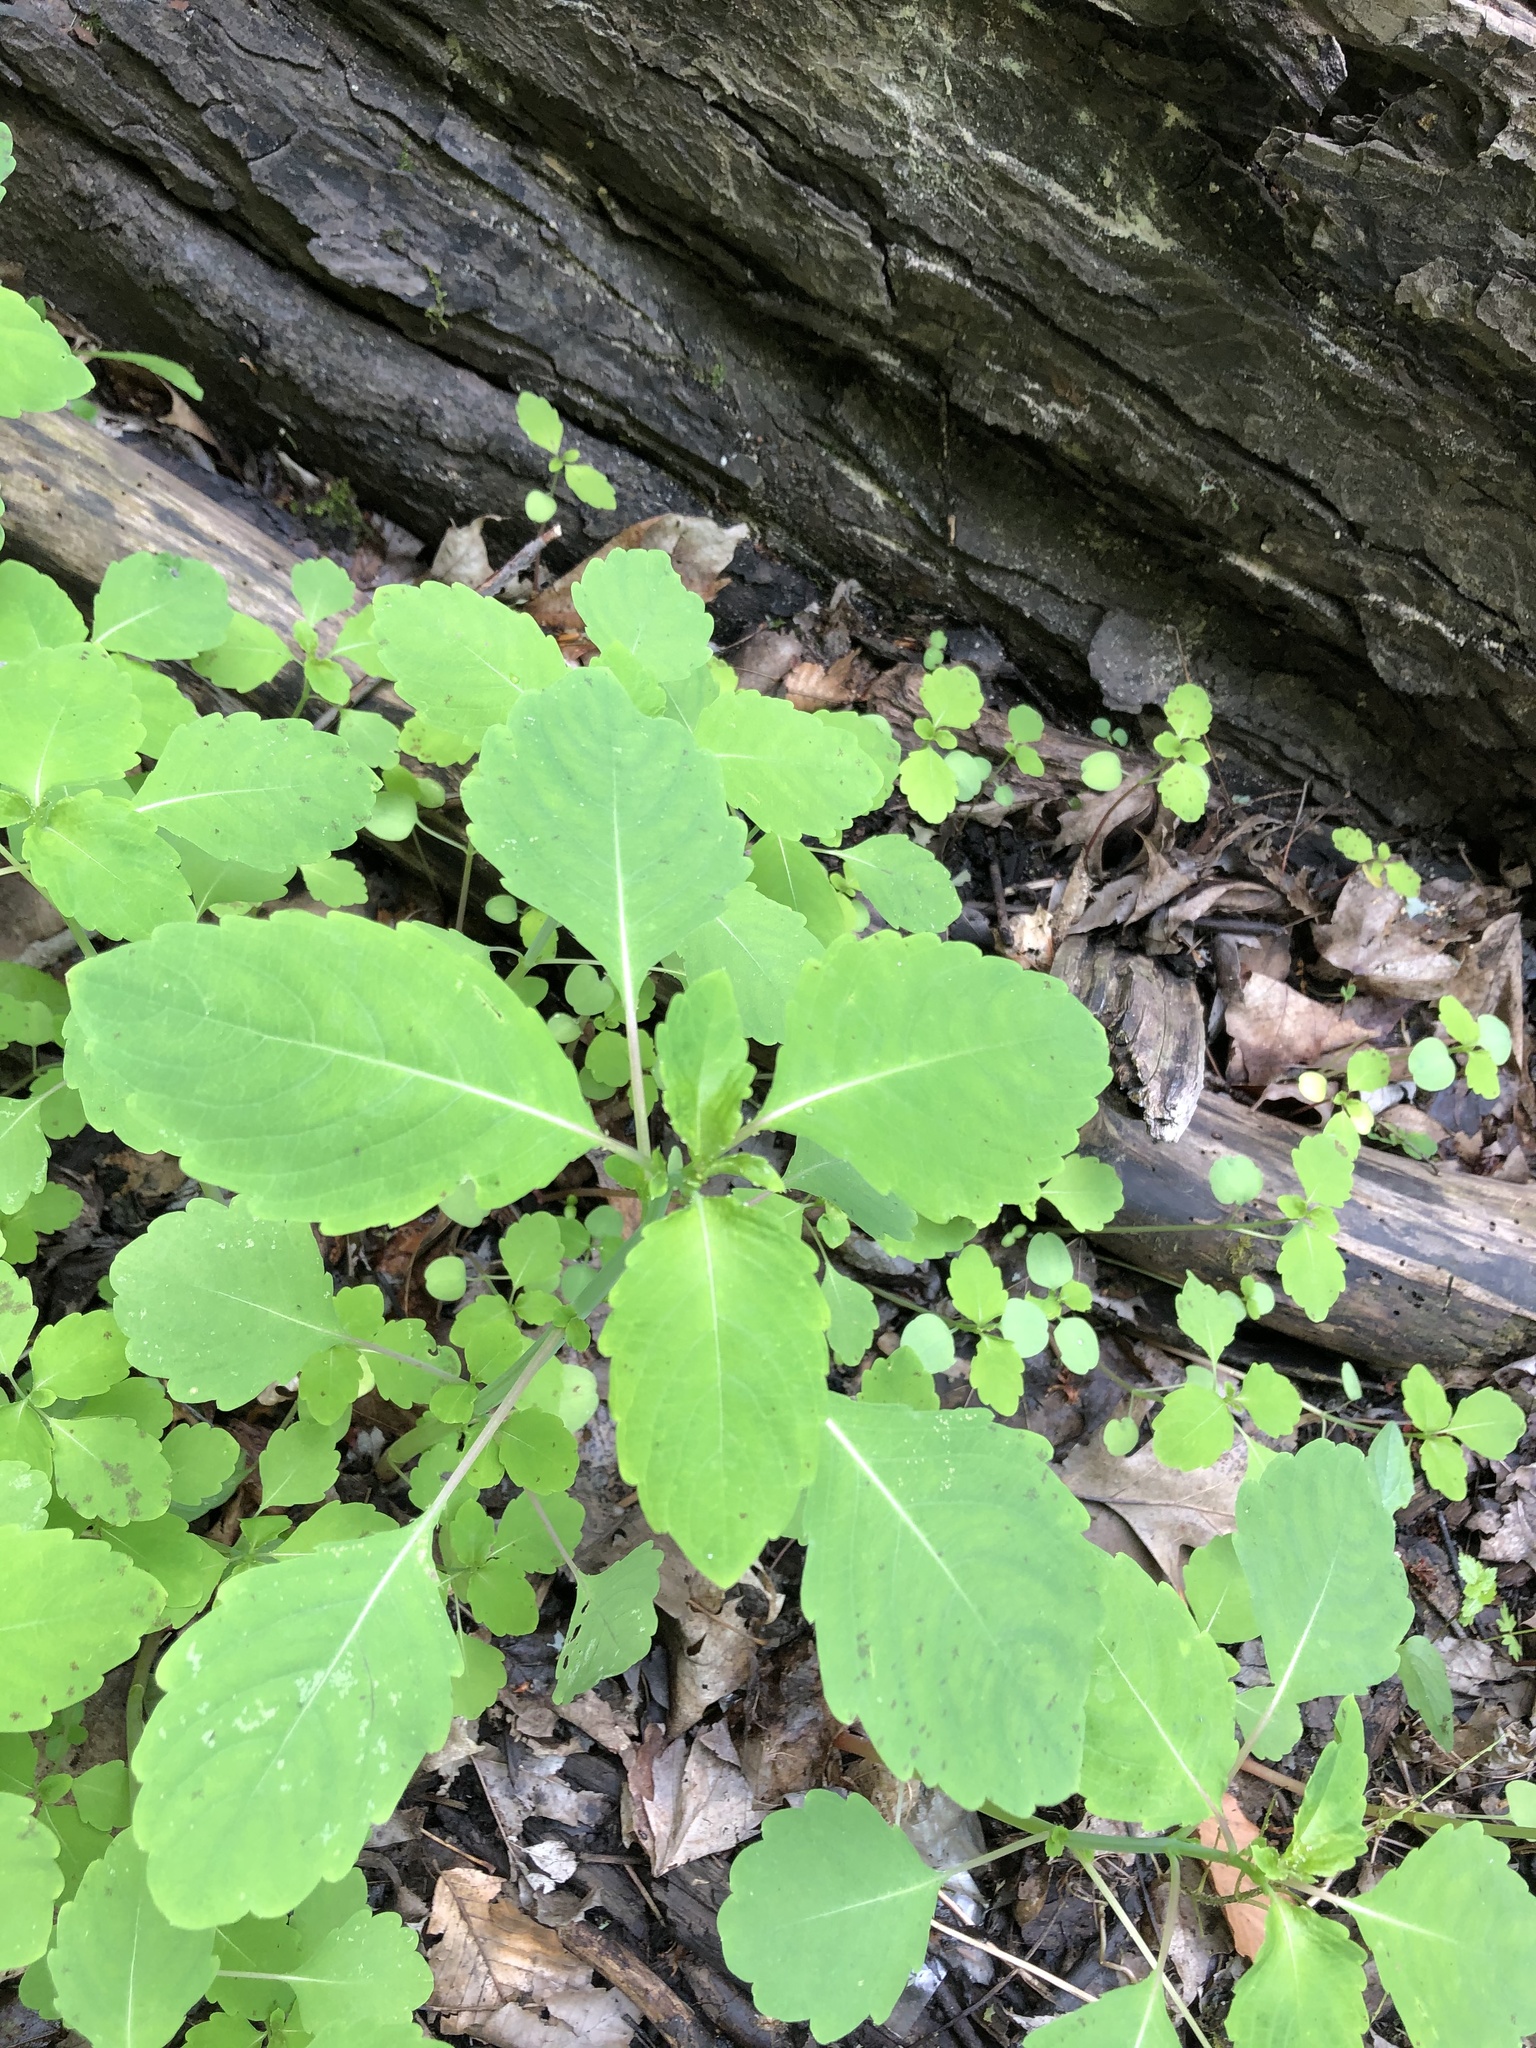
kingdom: Plantae
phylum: Tracheophyta
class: Magnoliopsida
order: Ericales
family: Balsaminaceae
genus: Impatiens
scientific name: Impatiens capensis
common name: Orange balsam
